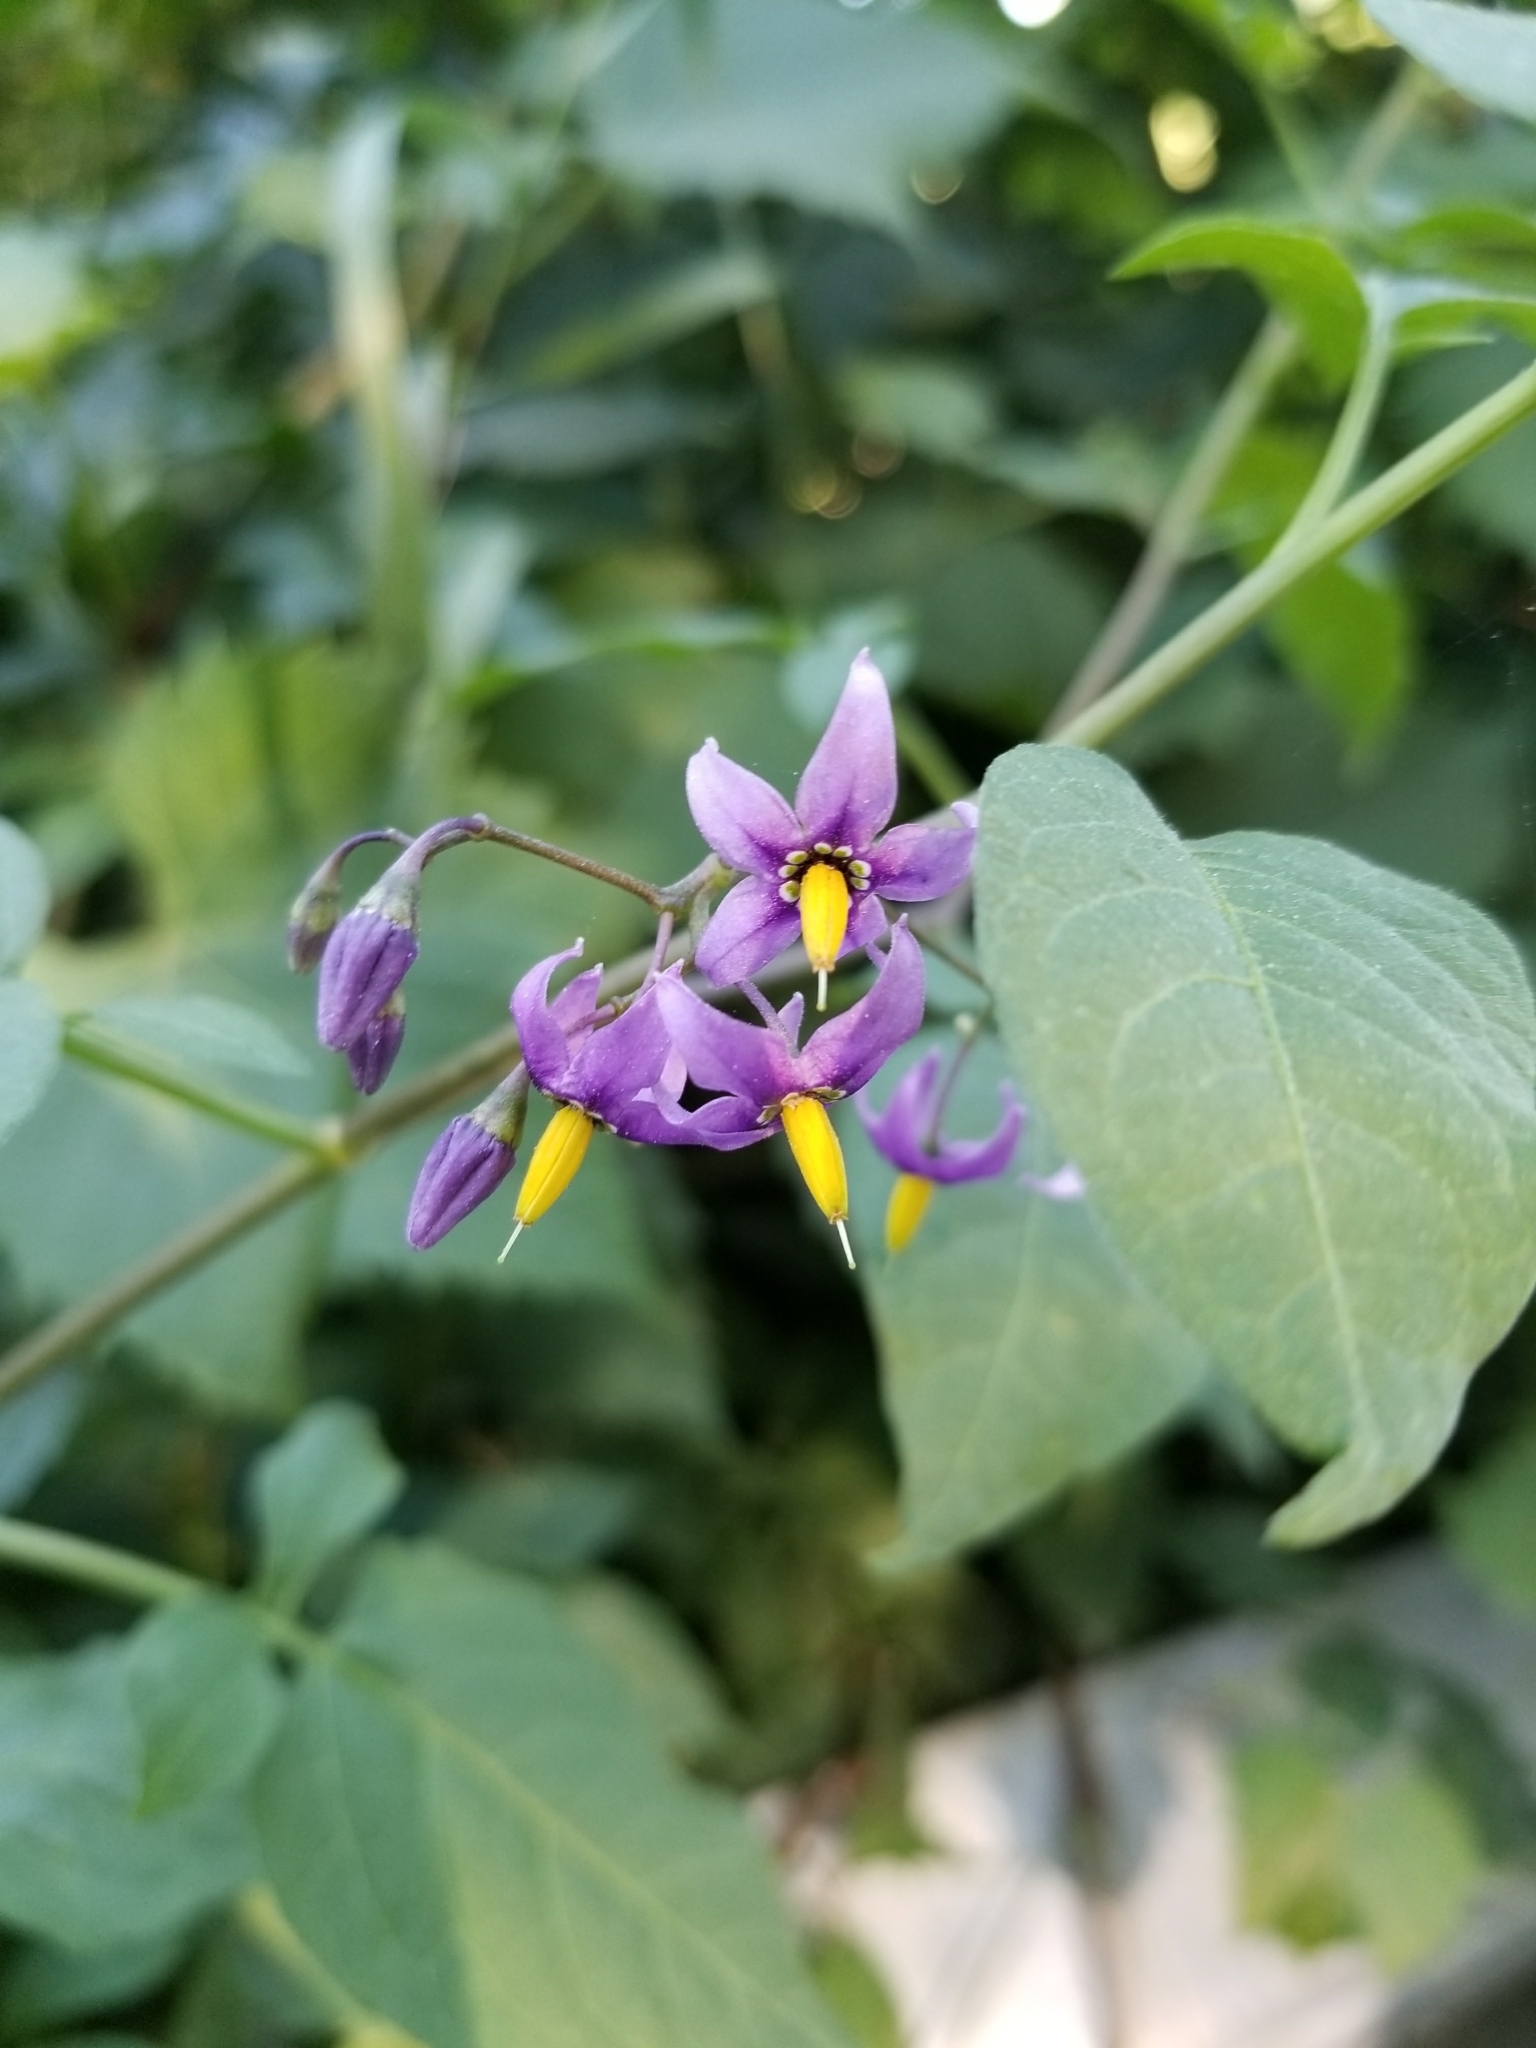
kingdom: Plantae
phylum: Tracheophyta
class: Magnoliopsida
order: Solanales
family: Solanaceae
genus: Solanum
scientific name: Solanum dulcamara
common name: Climbing nightshade
